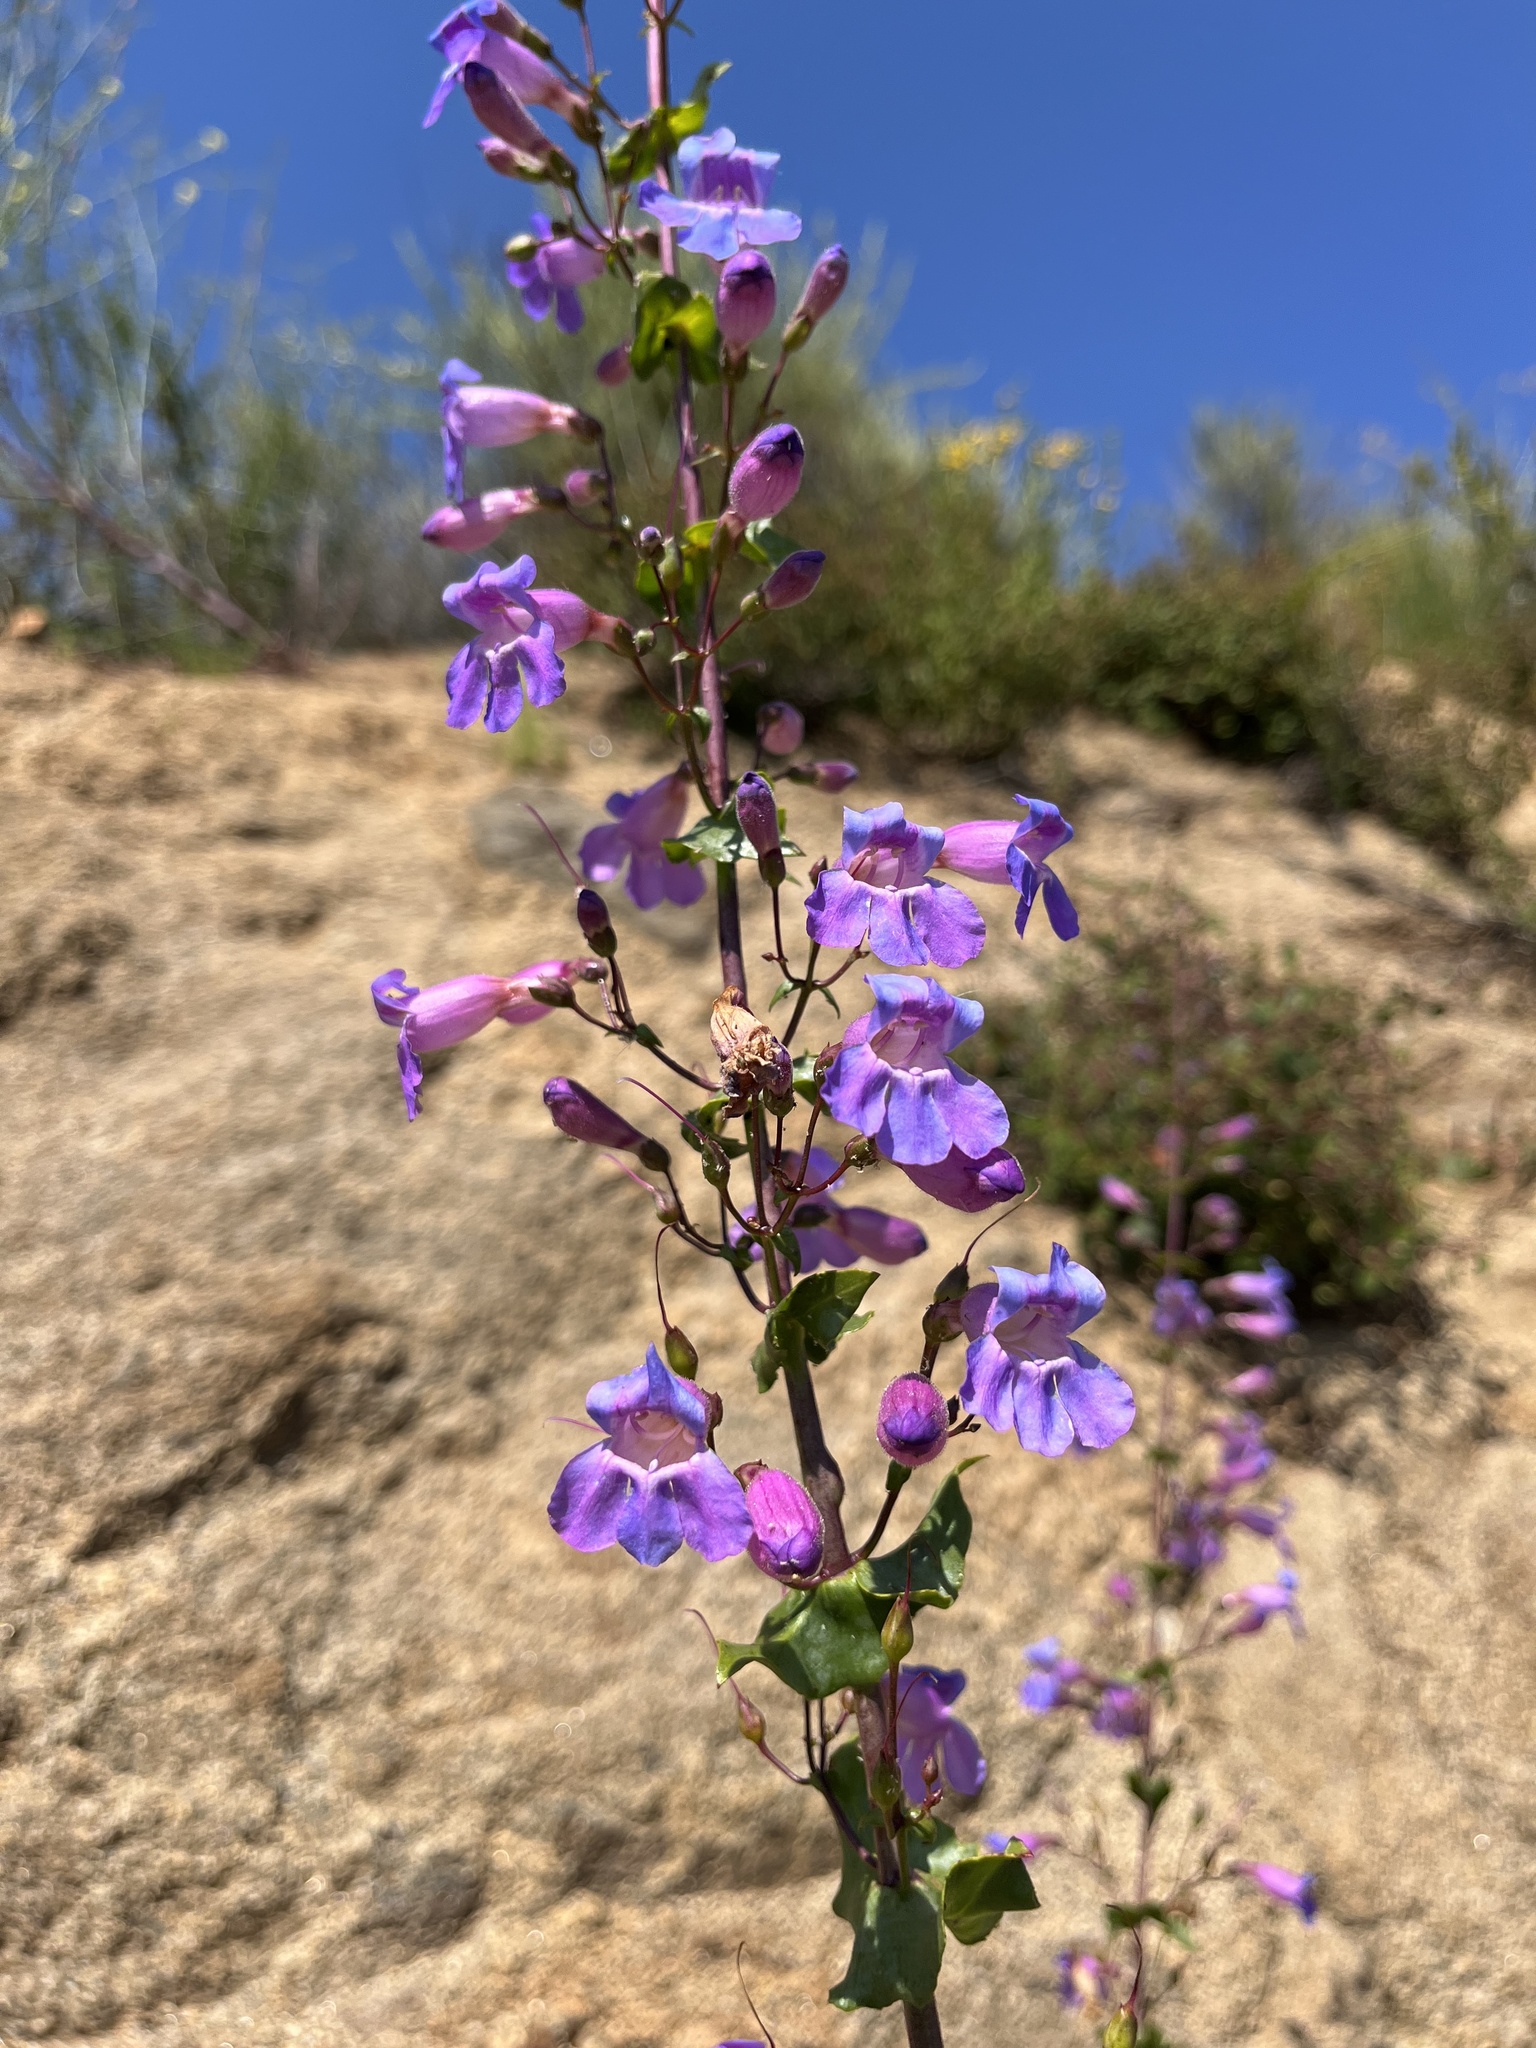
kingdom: Plantae
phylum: Tracheophyta
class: Magnoliopsida
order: Lamiales
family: Plantaginaceae
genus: Penstemon
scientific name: Penstemon spectabilis
